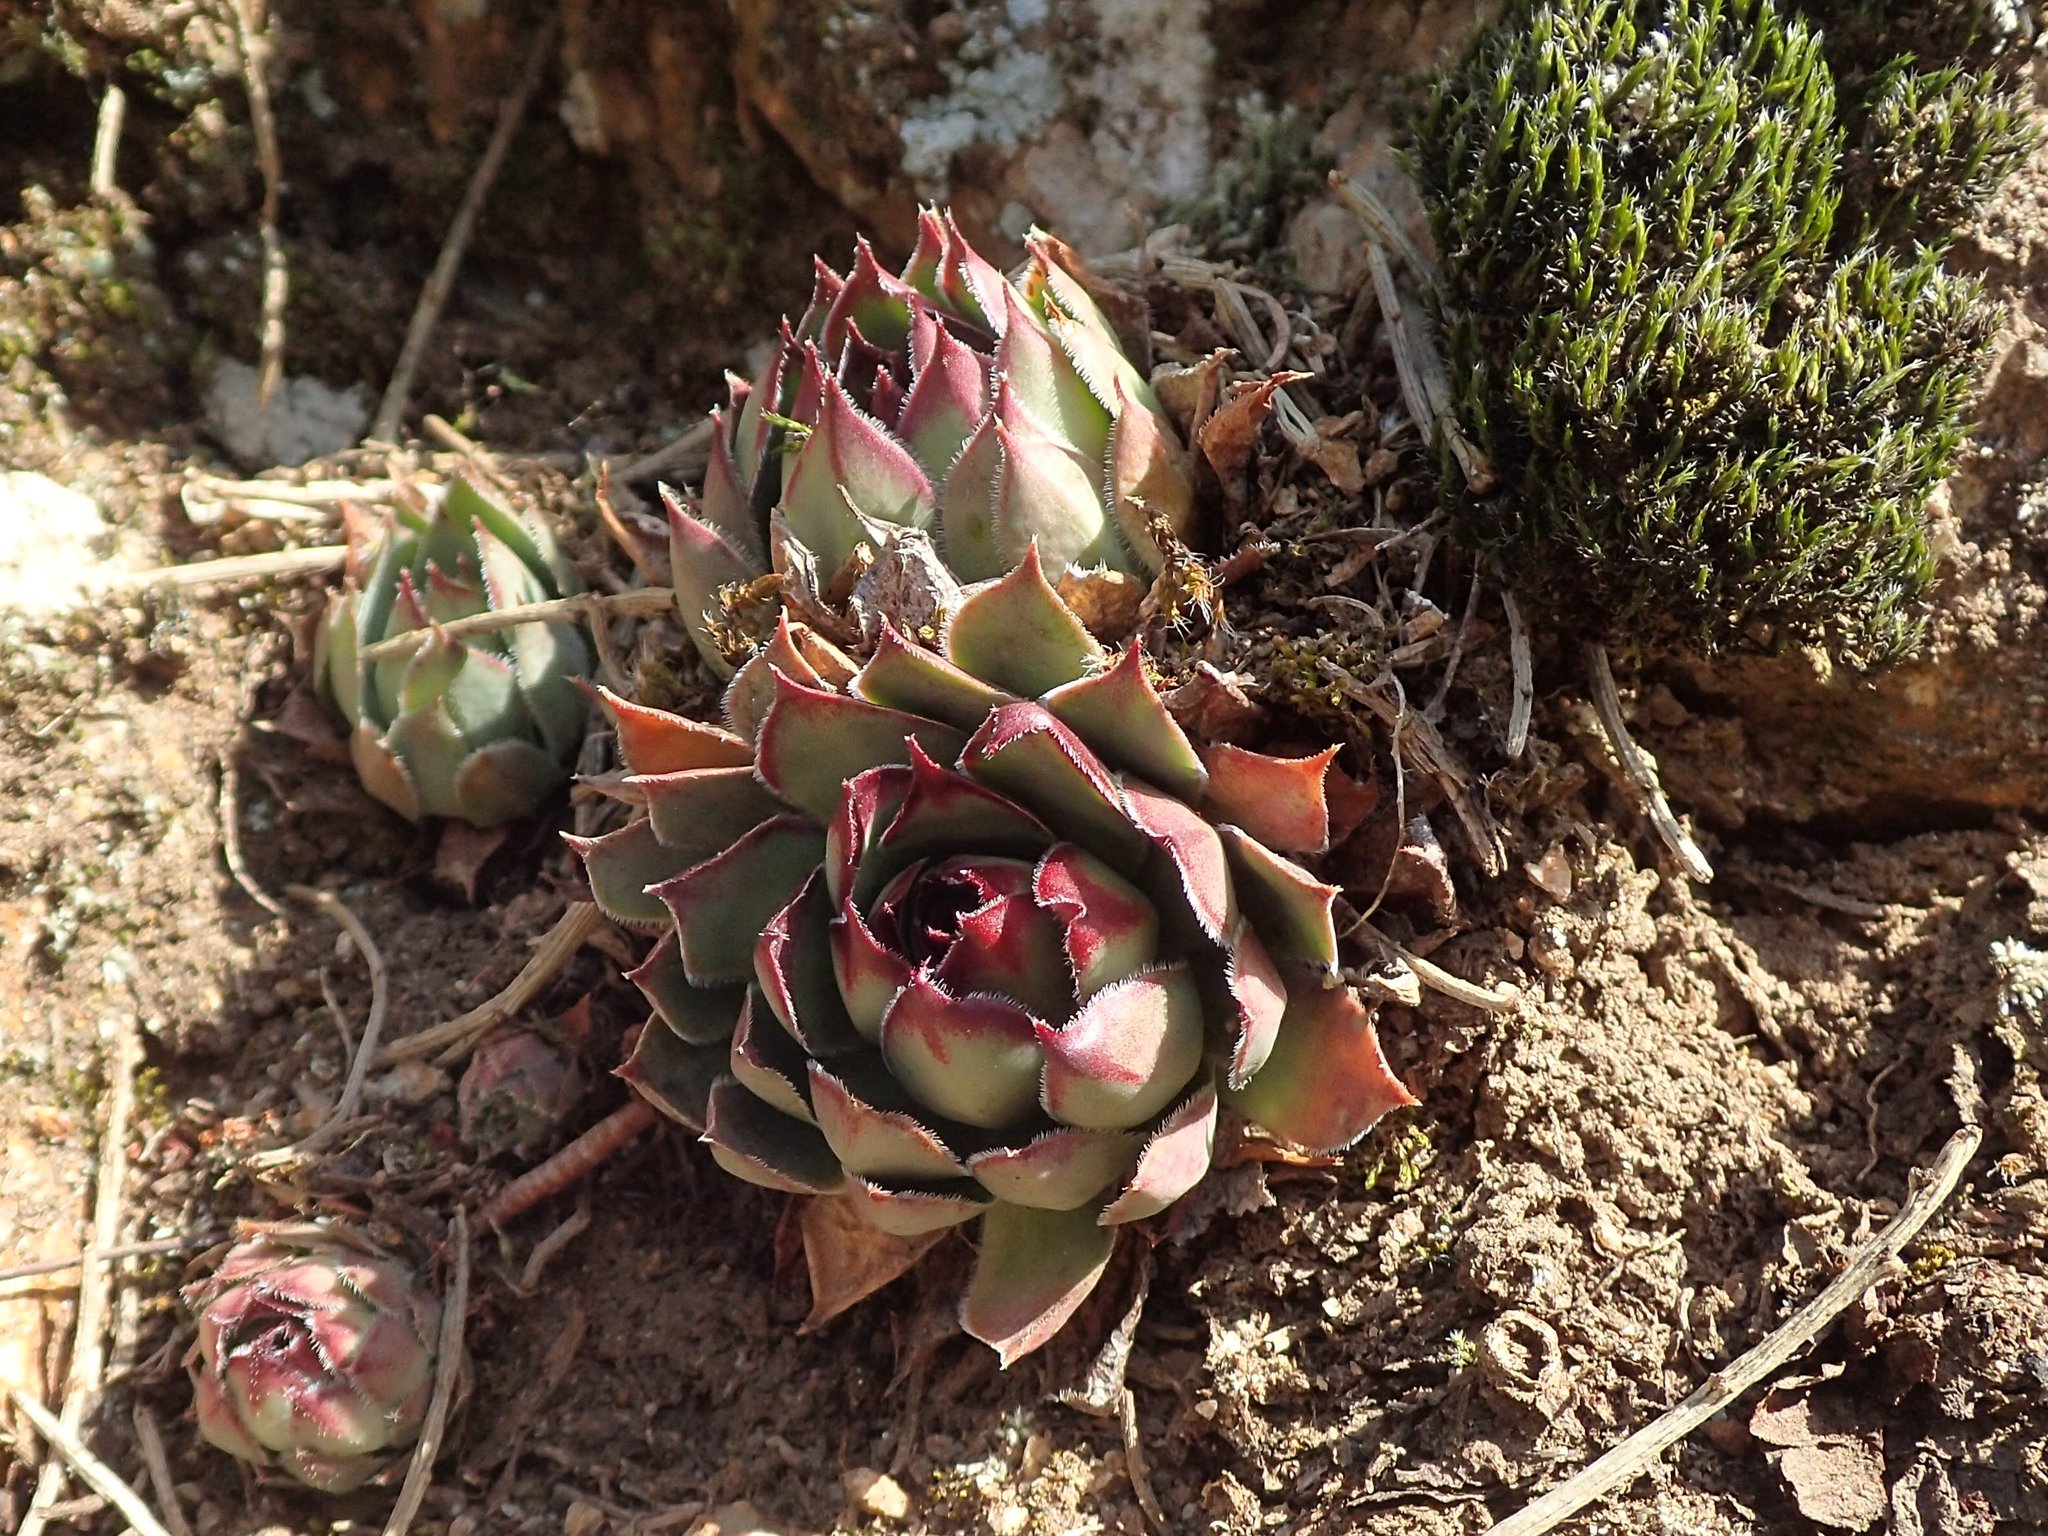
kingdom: Plantae
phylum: Tracheophyta
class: Magnoliopsida
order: Saxifragales
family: Crassulaceae
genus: Sempervivum
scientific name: Sempervivum tectorum
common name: House-leek
